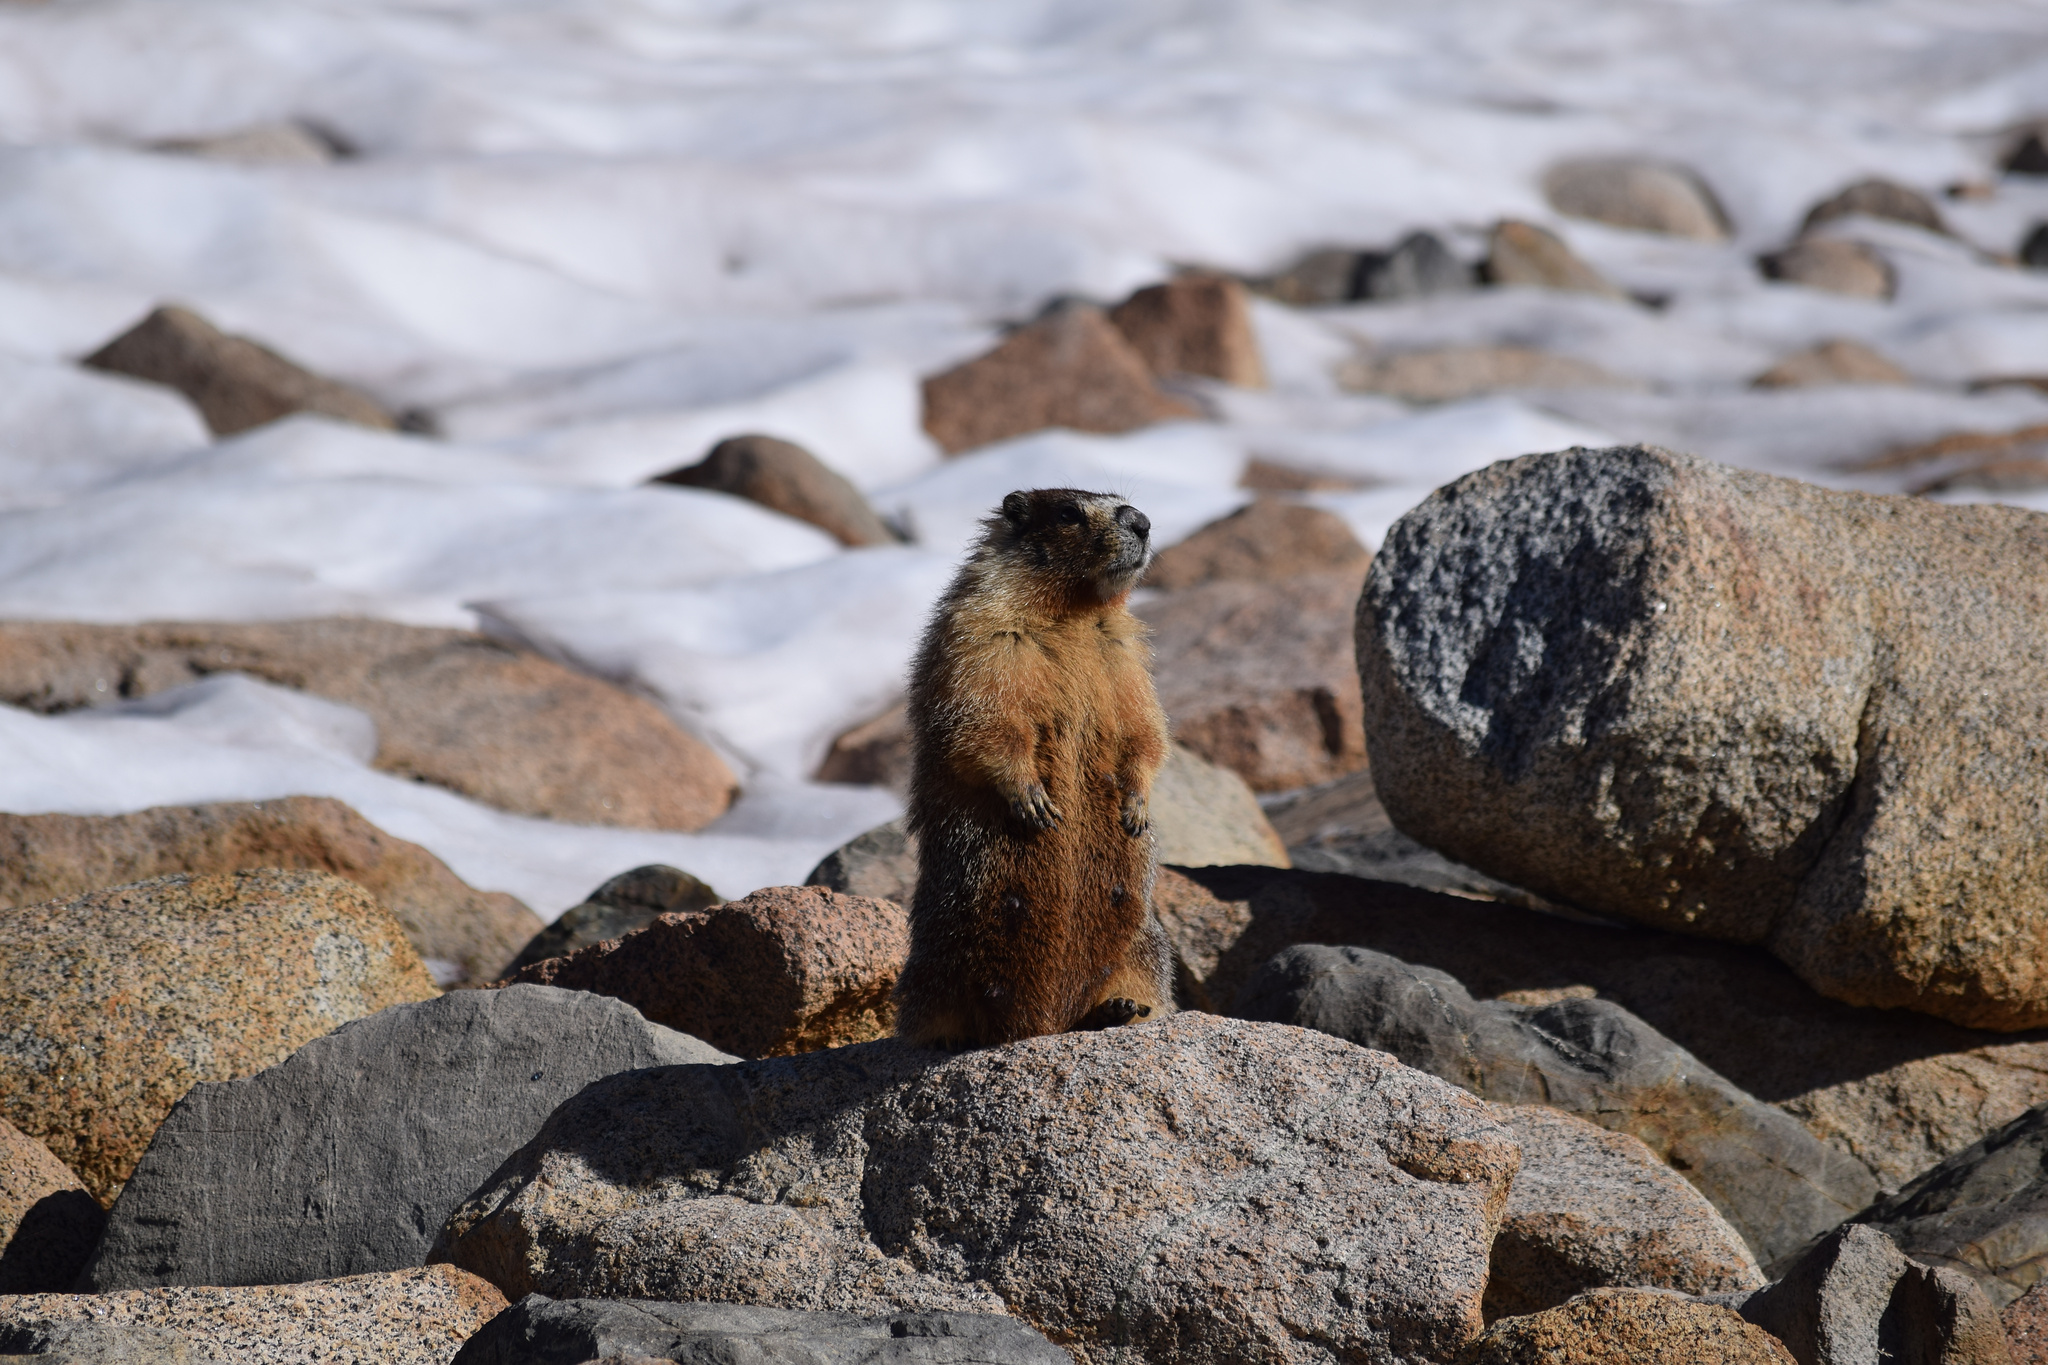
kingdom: Animalia
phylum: Chordata
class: Mammalia
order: Rodentia
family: Sciuridae
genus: Marmota
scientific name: Marmota flaviventris
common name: Yellow-bellied marmot
